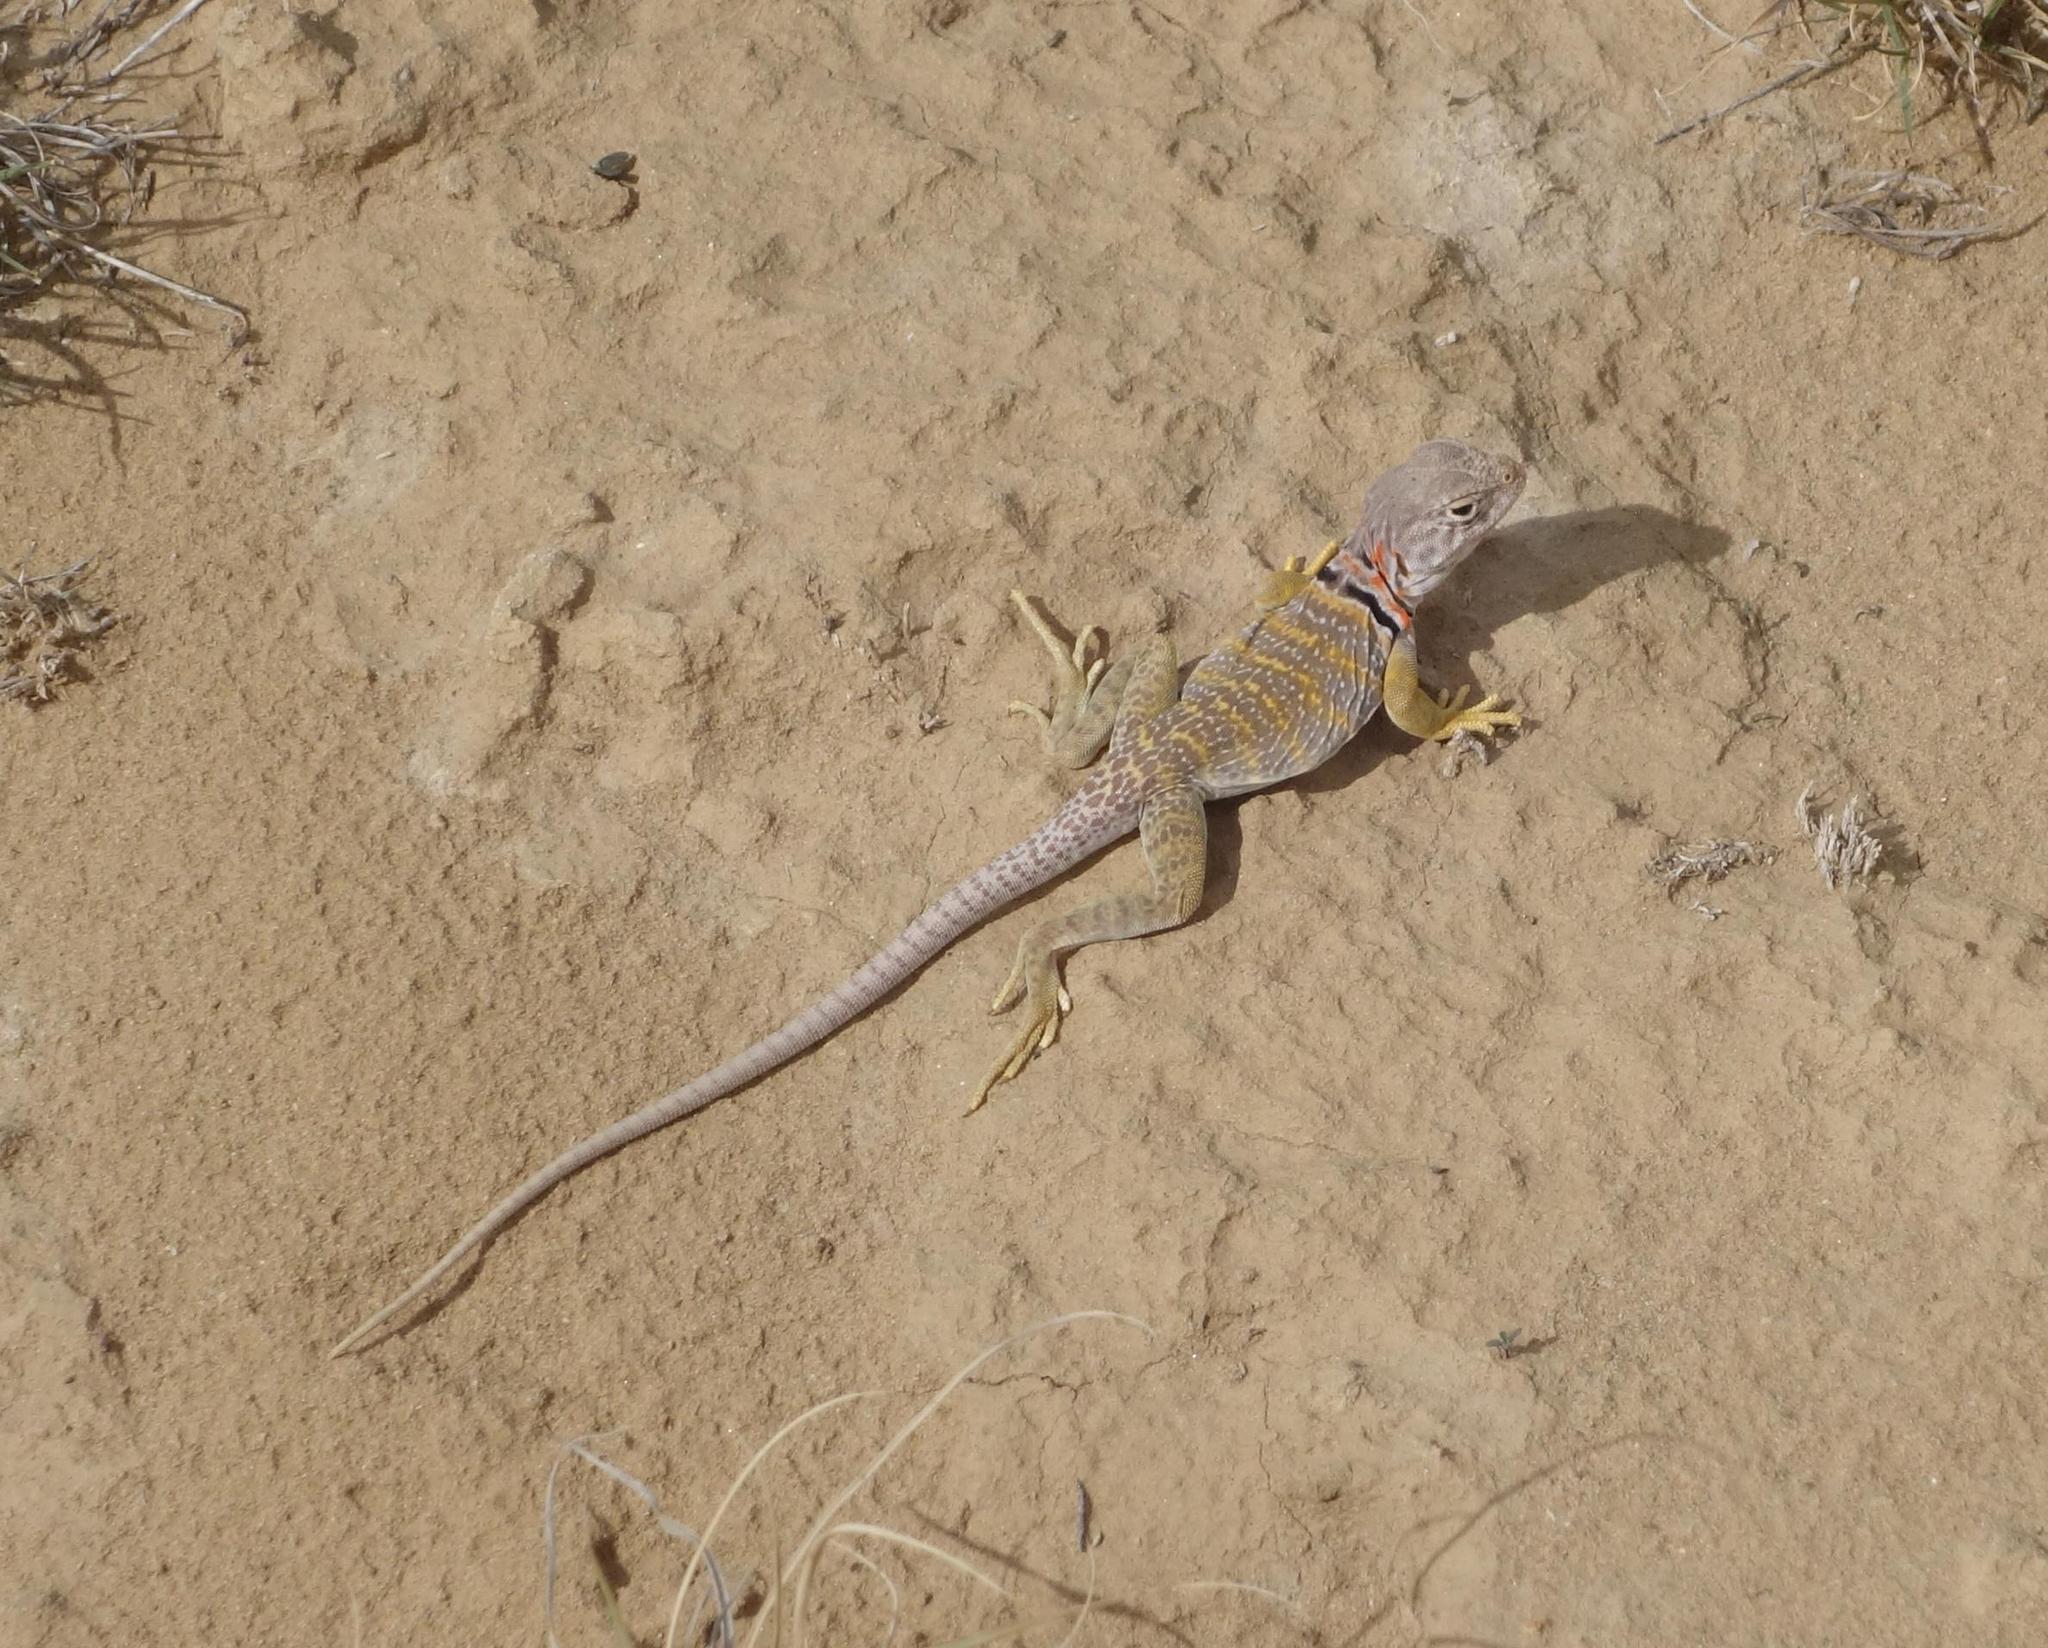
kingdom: Animalia
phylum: Chordata
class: Squamata
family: Crotaphytidae
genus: Crotaphytus
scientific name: Crotaphytus collaris
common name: Collared lizard
